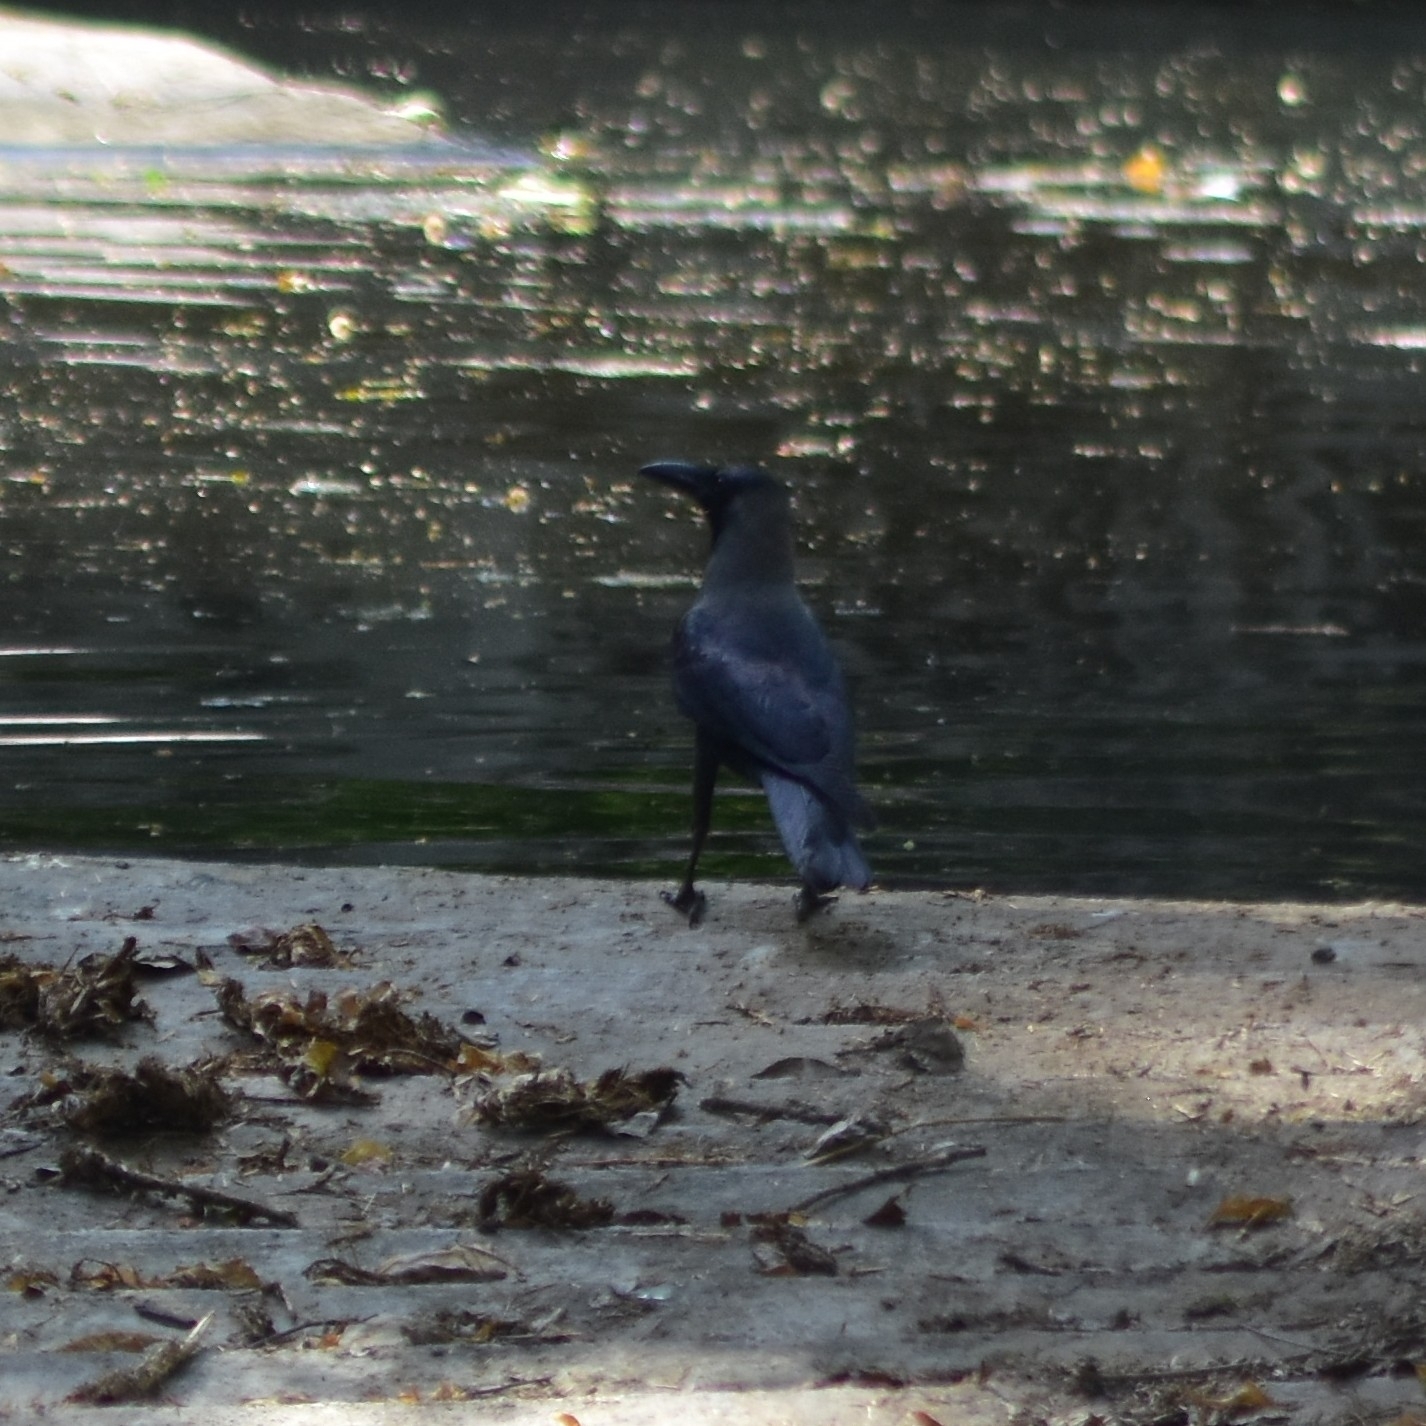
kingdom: Animalia
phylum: Chordata
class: Aves
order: Passeriformes
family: Corvidae
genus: Corvus
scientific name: Corvus splendens
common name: House crow
